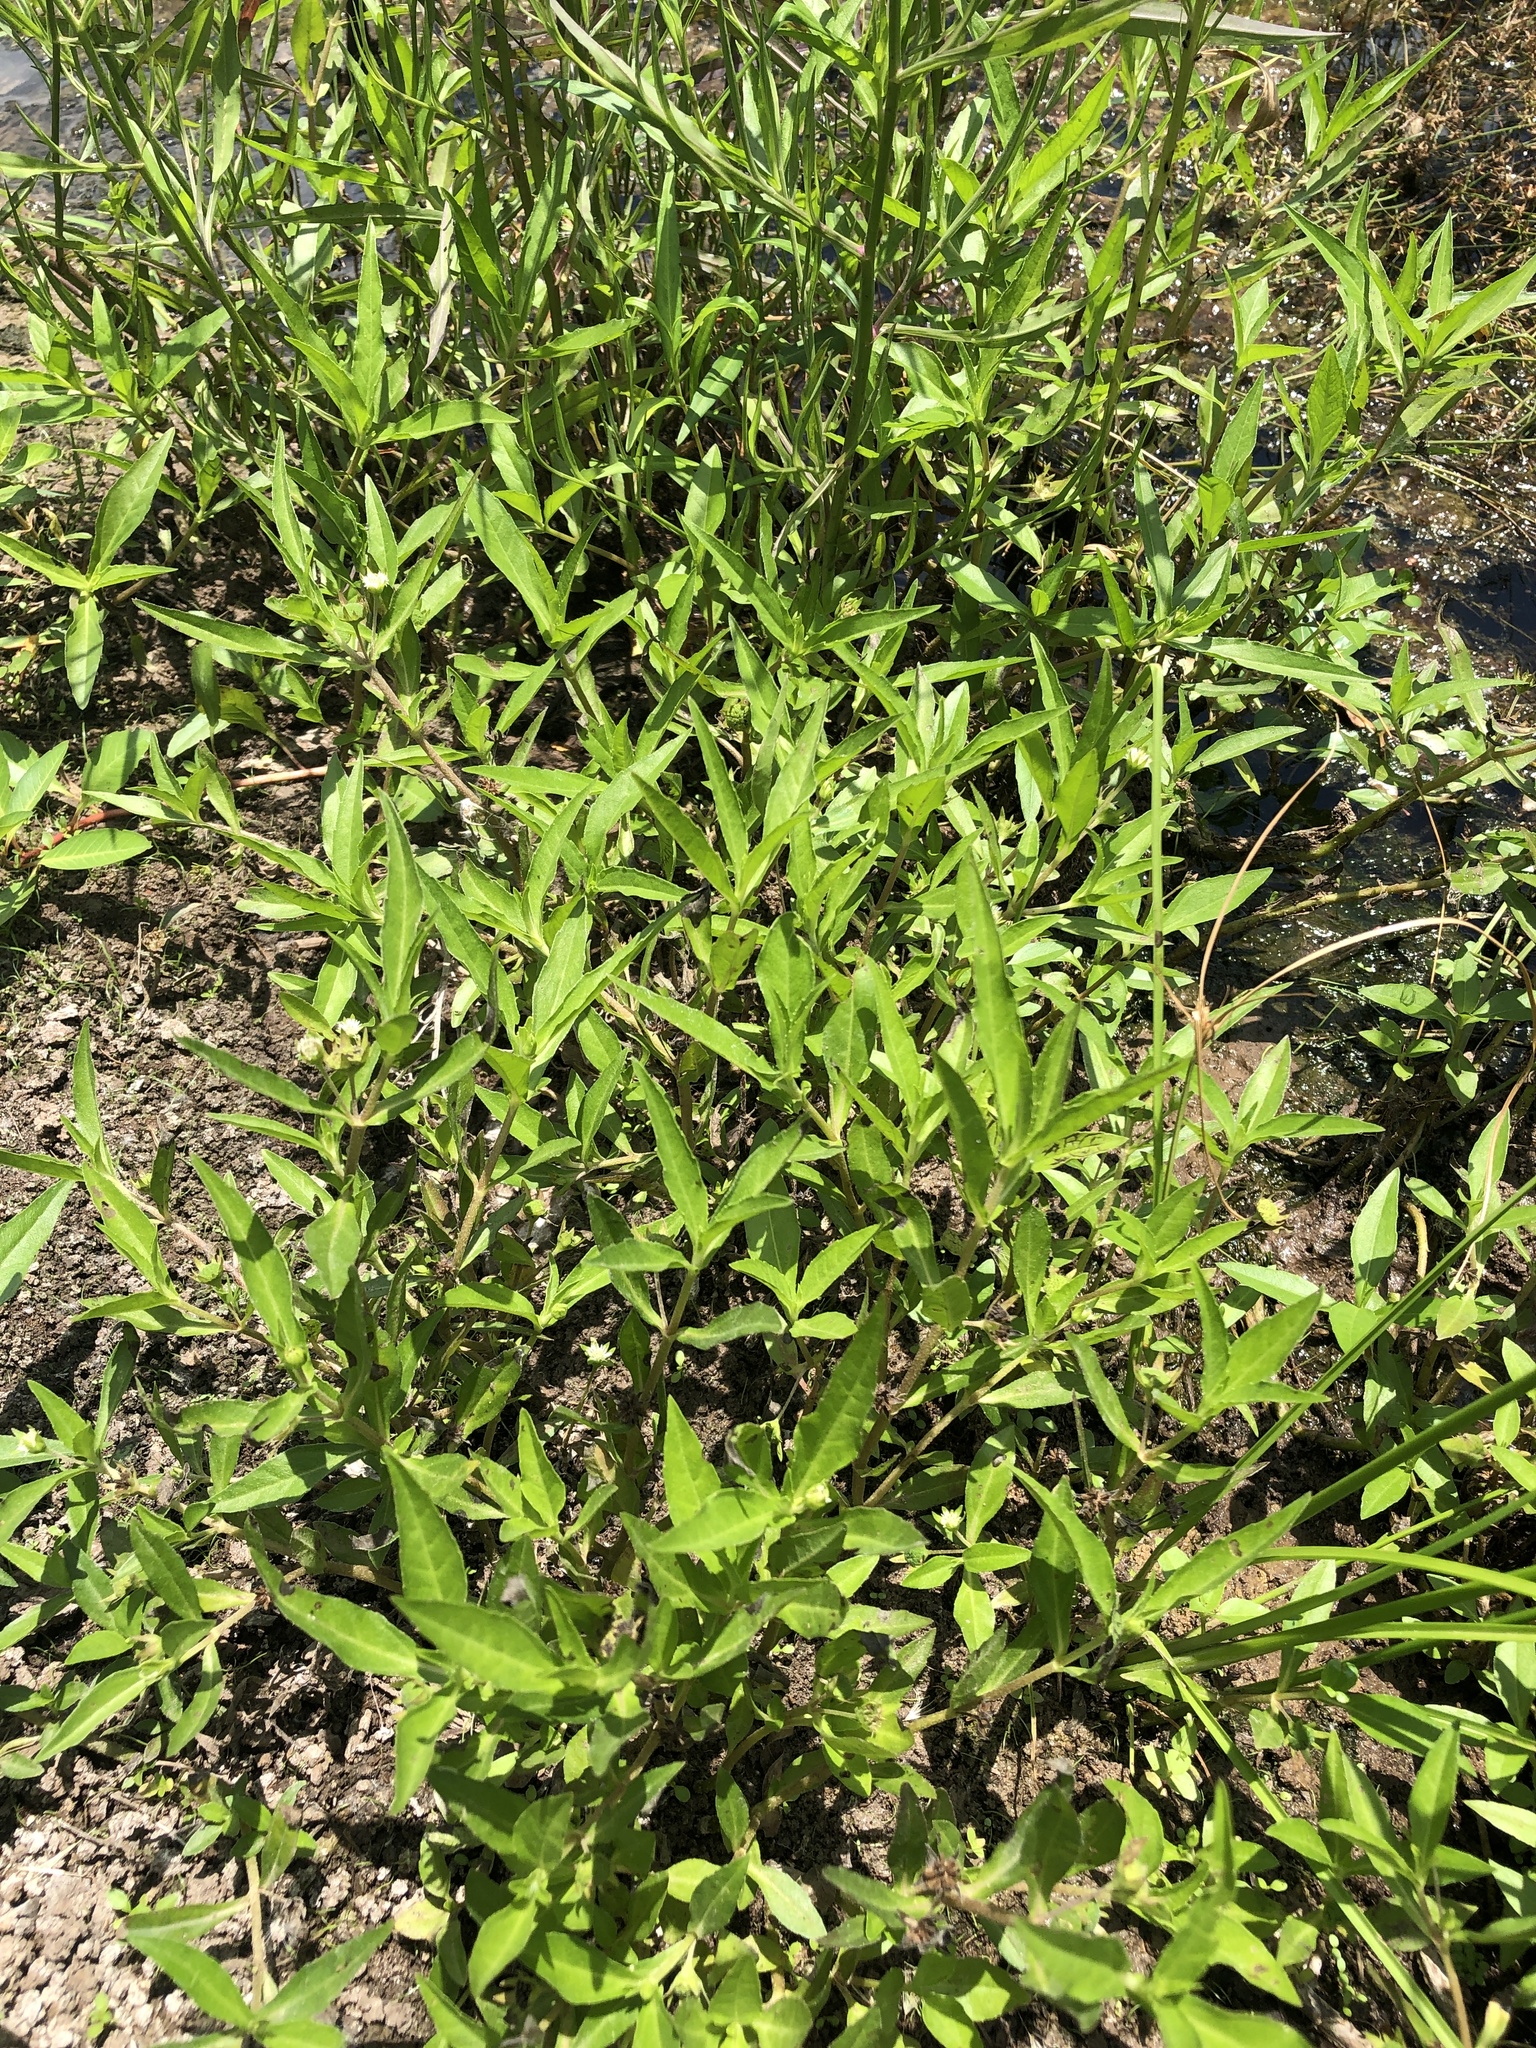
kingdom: Plantae
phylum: Tracheophyta
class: Magnoliopsida
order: Asterales
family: Asteraceae
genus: Eclipta
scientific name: Eclipta prostrata
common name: False daisy
